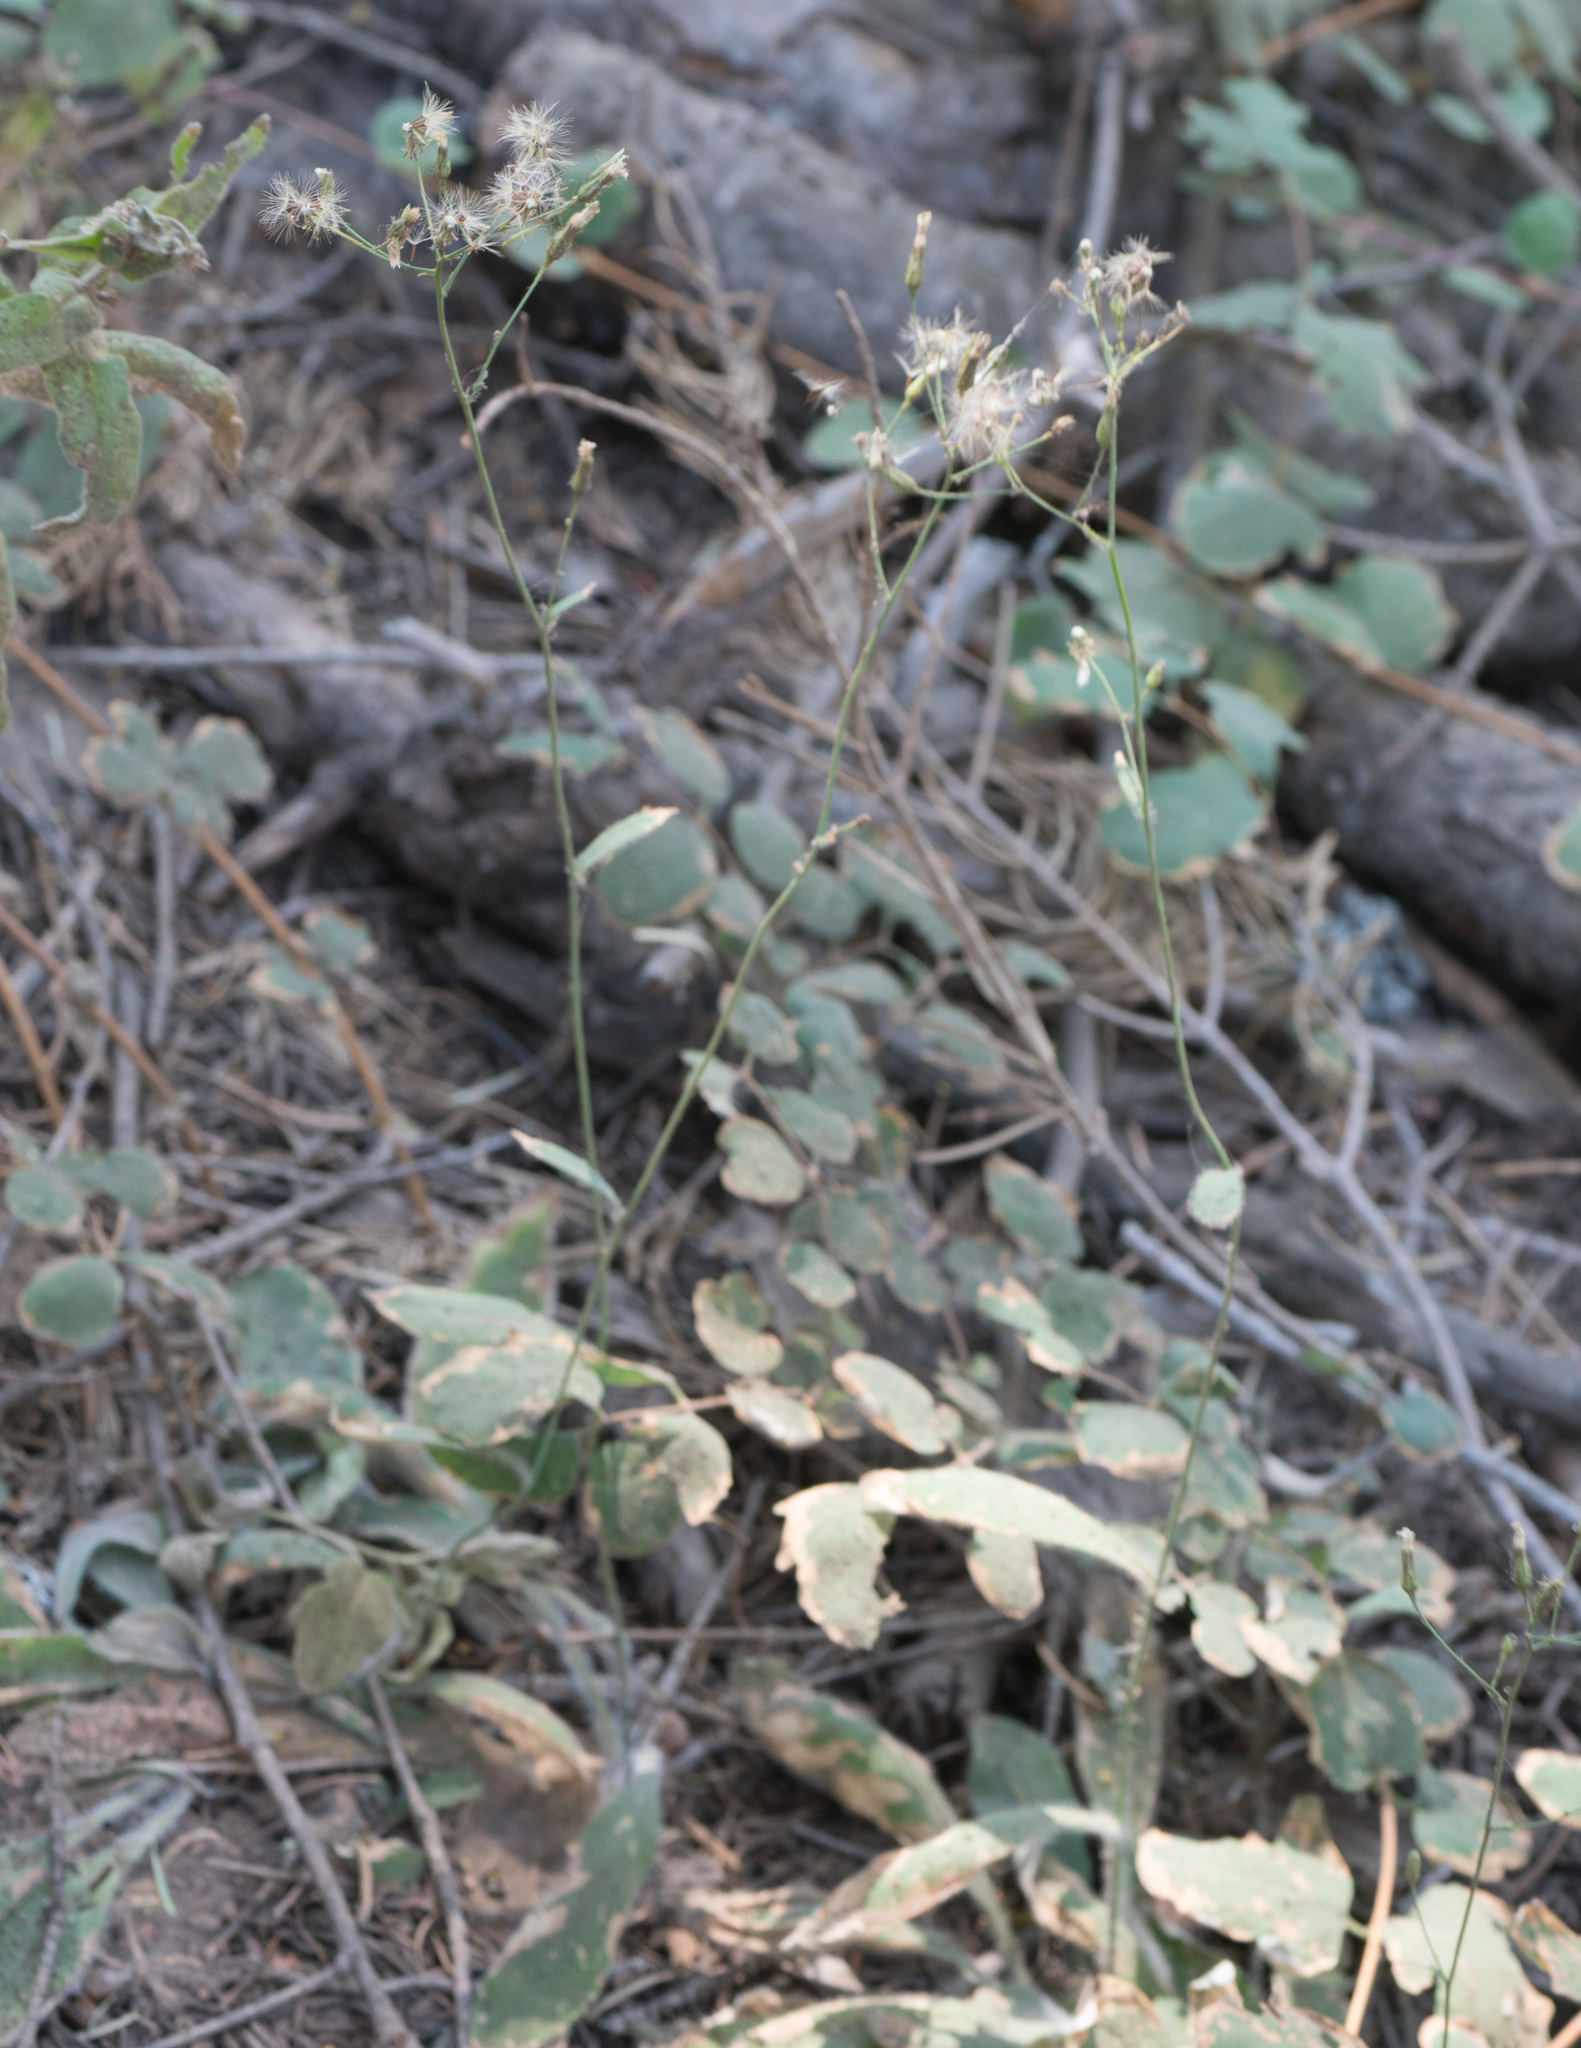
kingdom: Plantae
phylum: Tracheophyta
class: Magnoliopsida
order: Asterales
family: Asteraceae
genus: Hieracium
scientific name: Hieracium albiflorum
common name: White hawkweed
